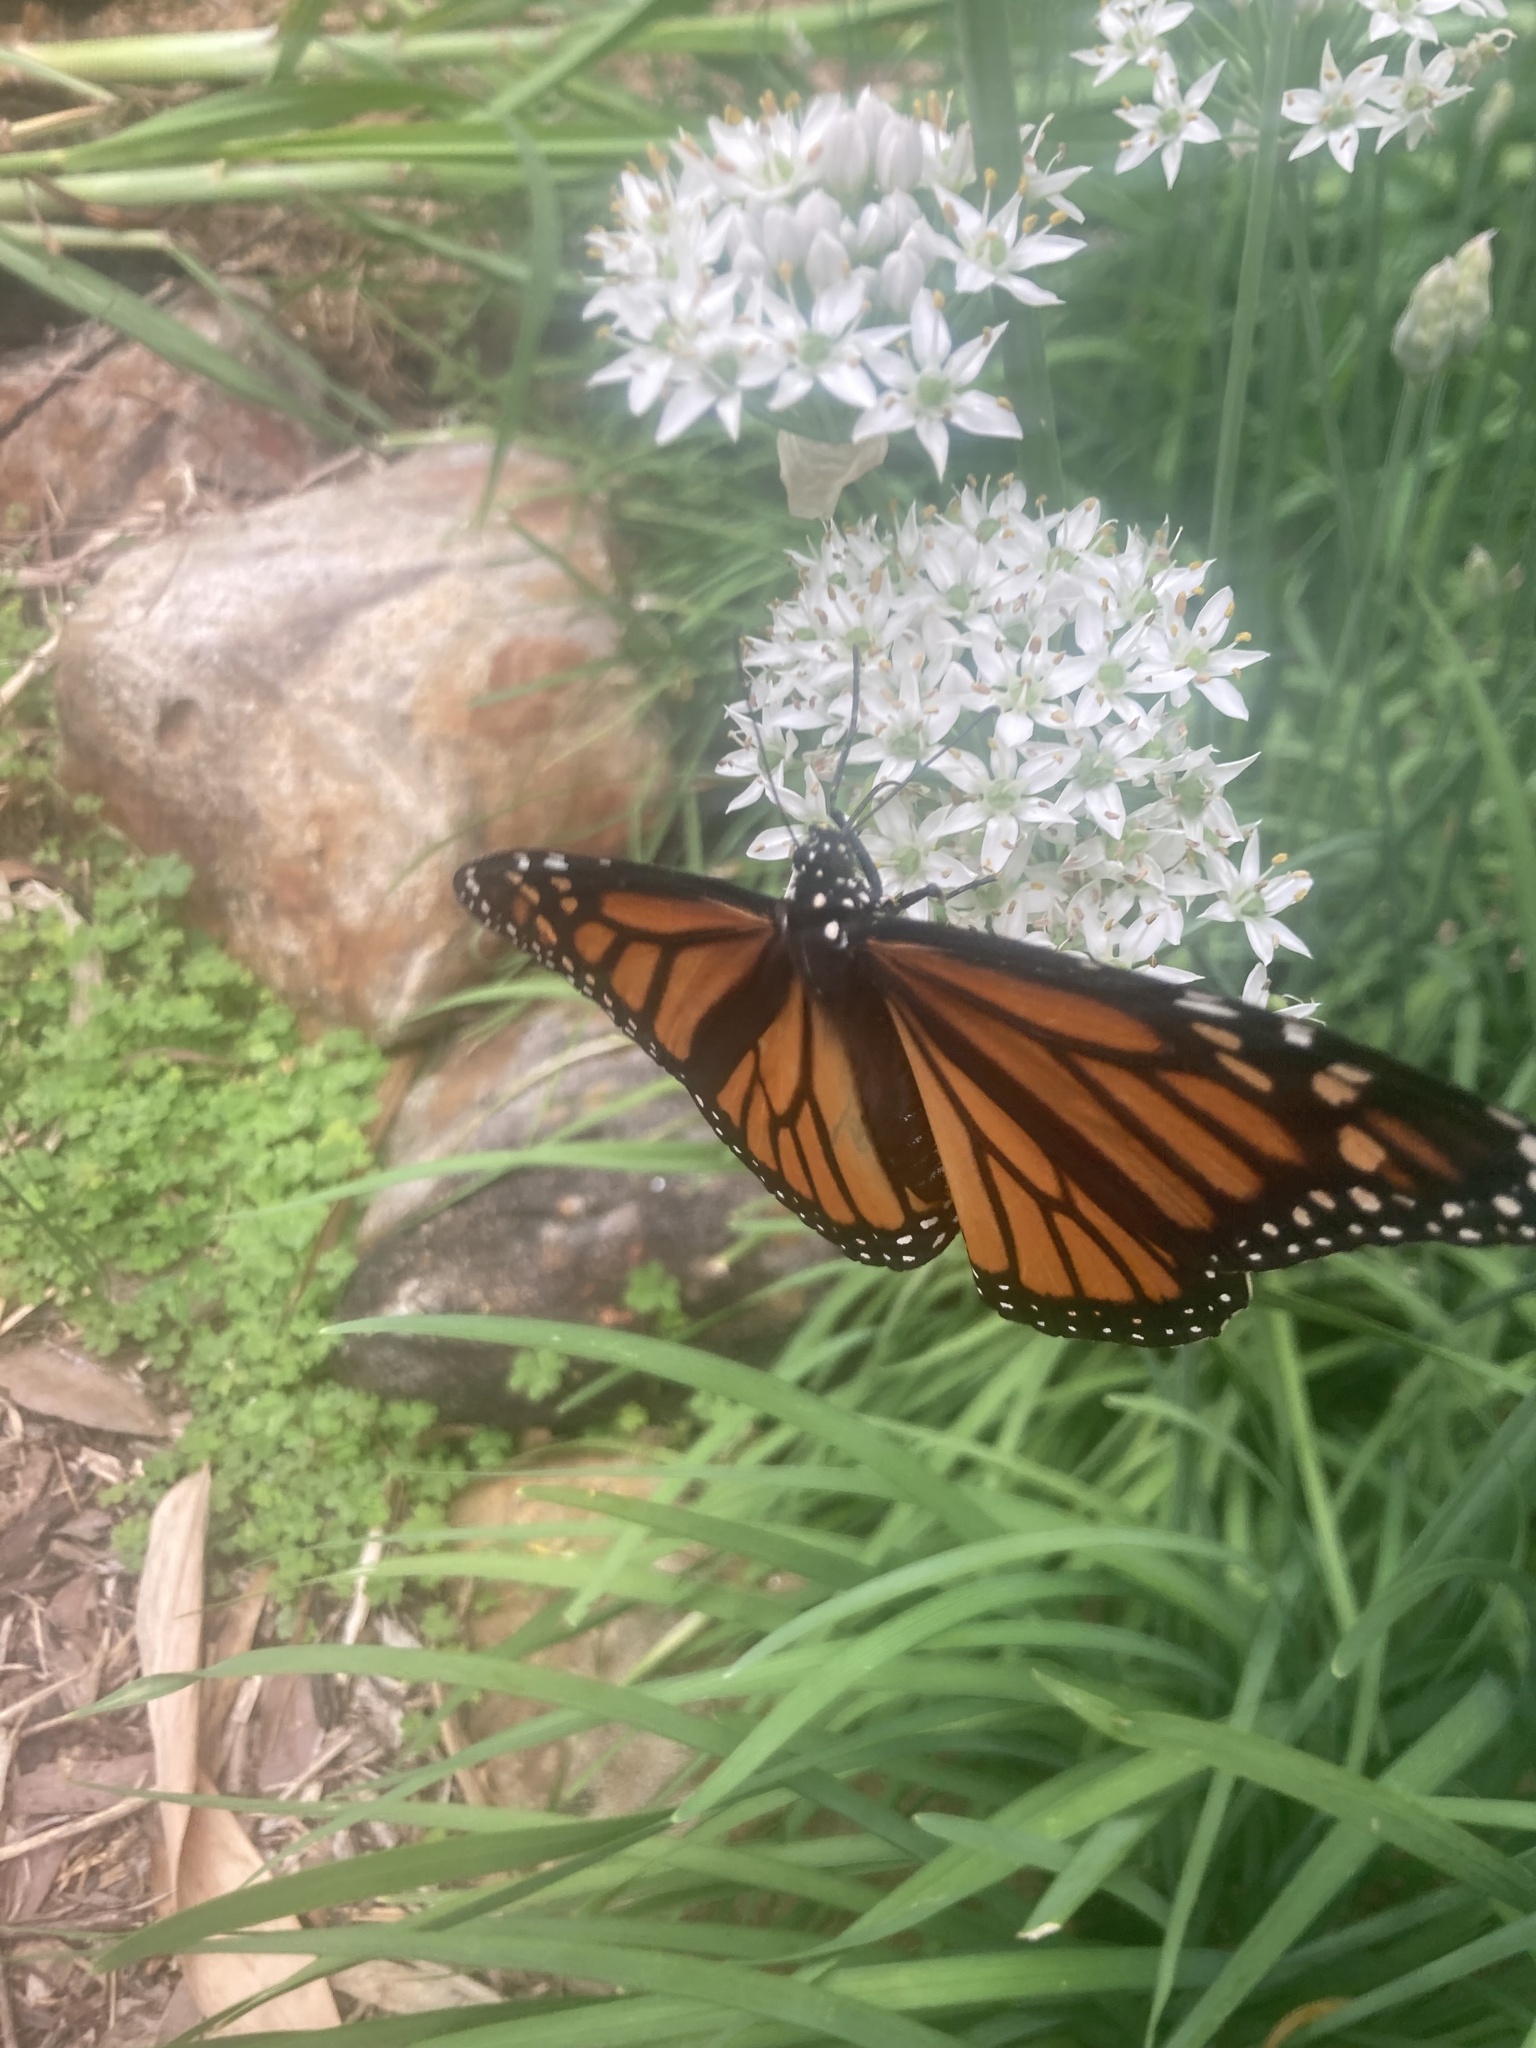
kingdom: Animalia
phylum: Arthropoda
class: Insecta
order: Lepidoptera
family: Nymphalidae
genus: Danaus
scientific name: Danaus plexippus
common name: Monarch
